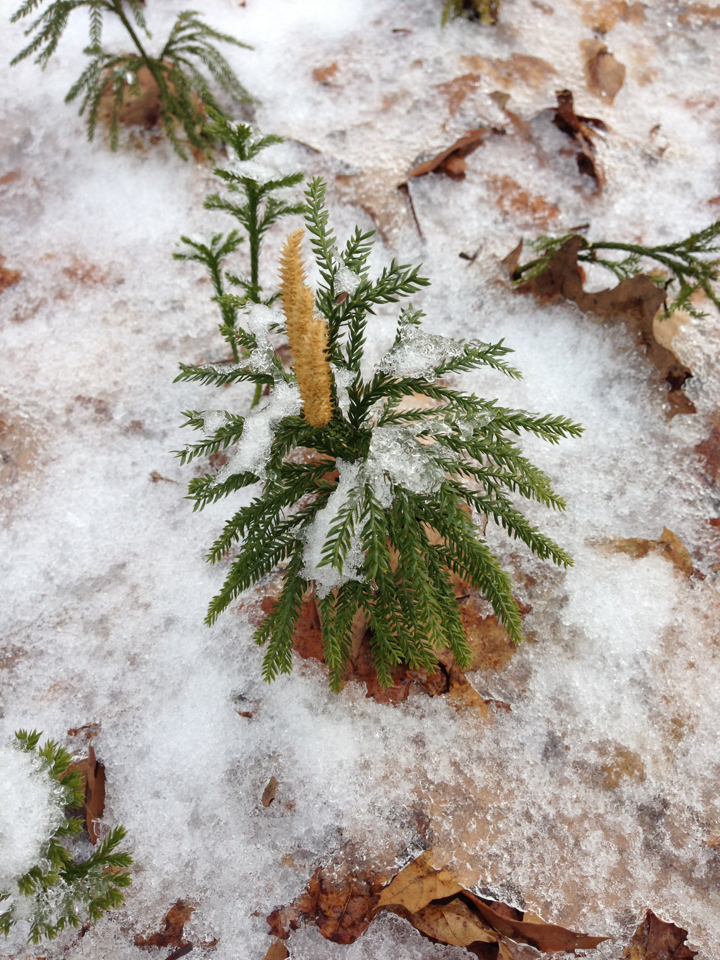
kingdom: Plantae
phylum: Tracheophyta
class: Lycopodiopsida
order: Lycopodiales
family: Lycopodiaceae
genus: Dendrolycopodium
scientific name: Dendrolycopodium obscurum
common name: Common ground-pine
